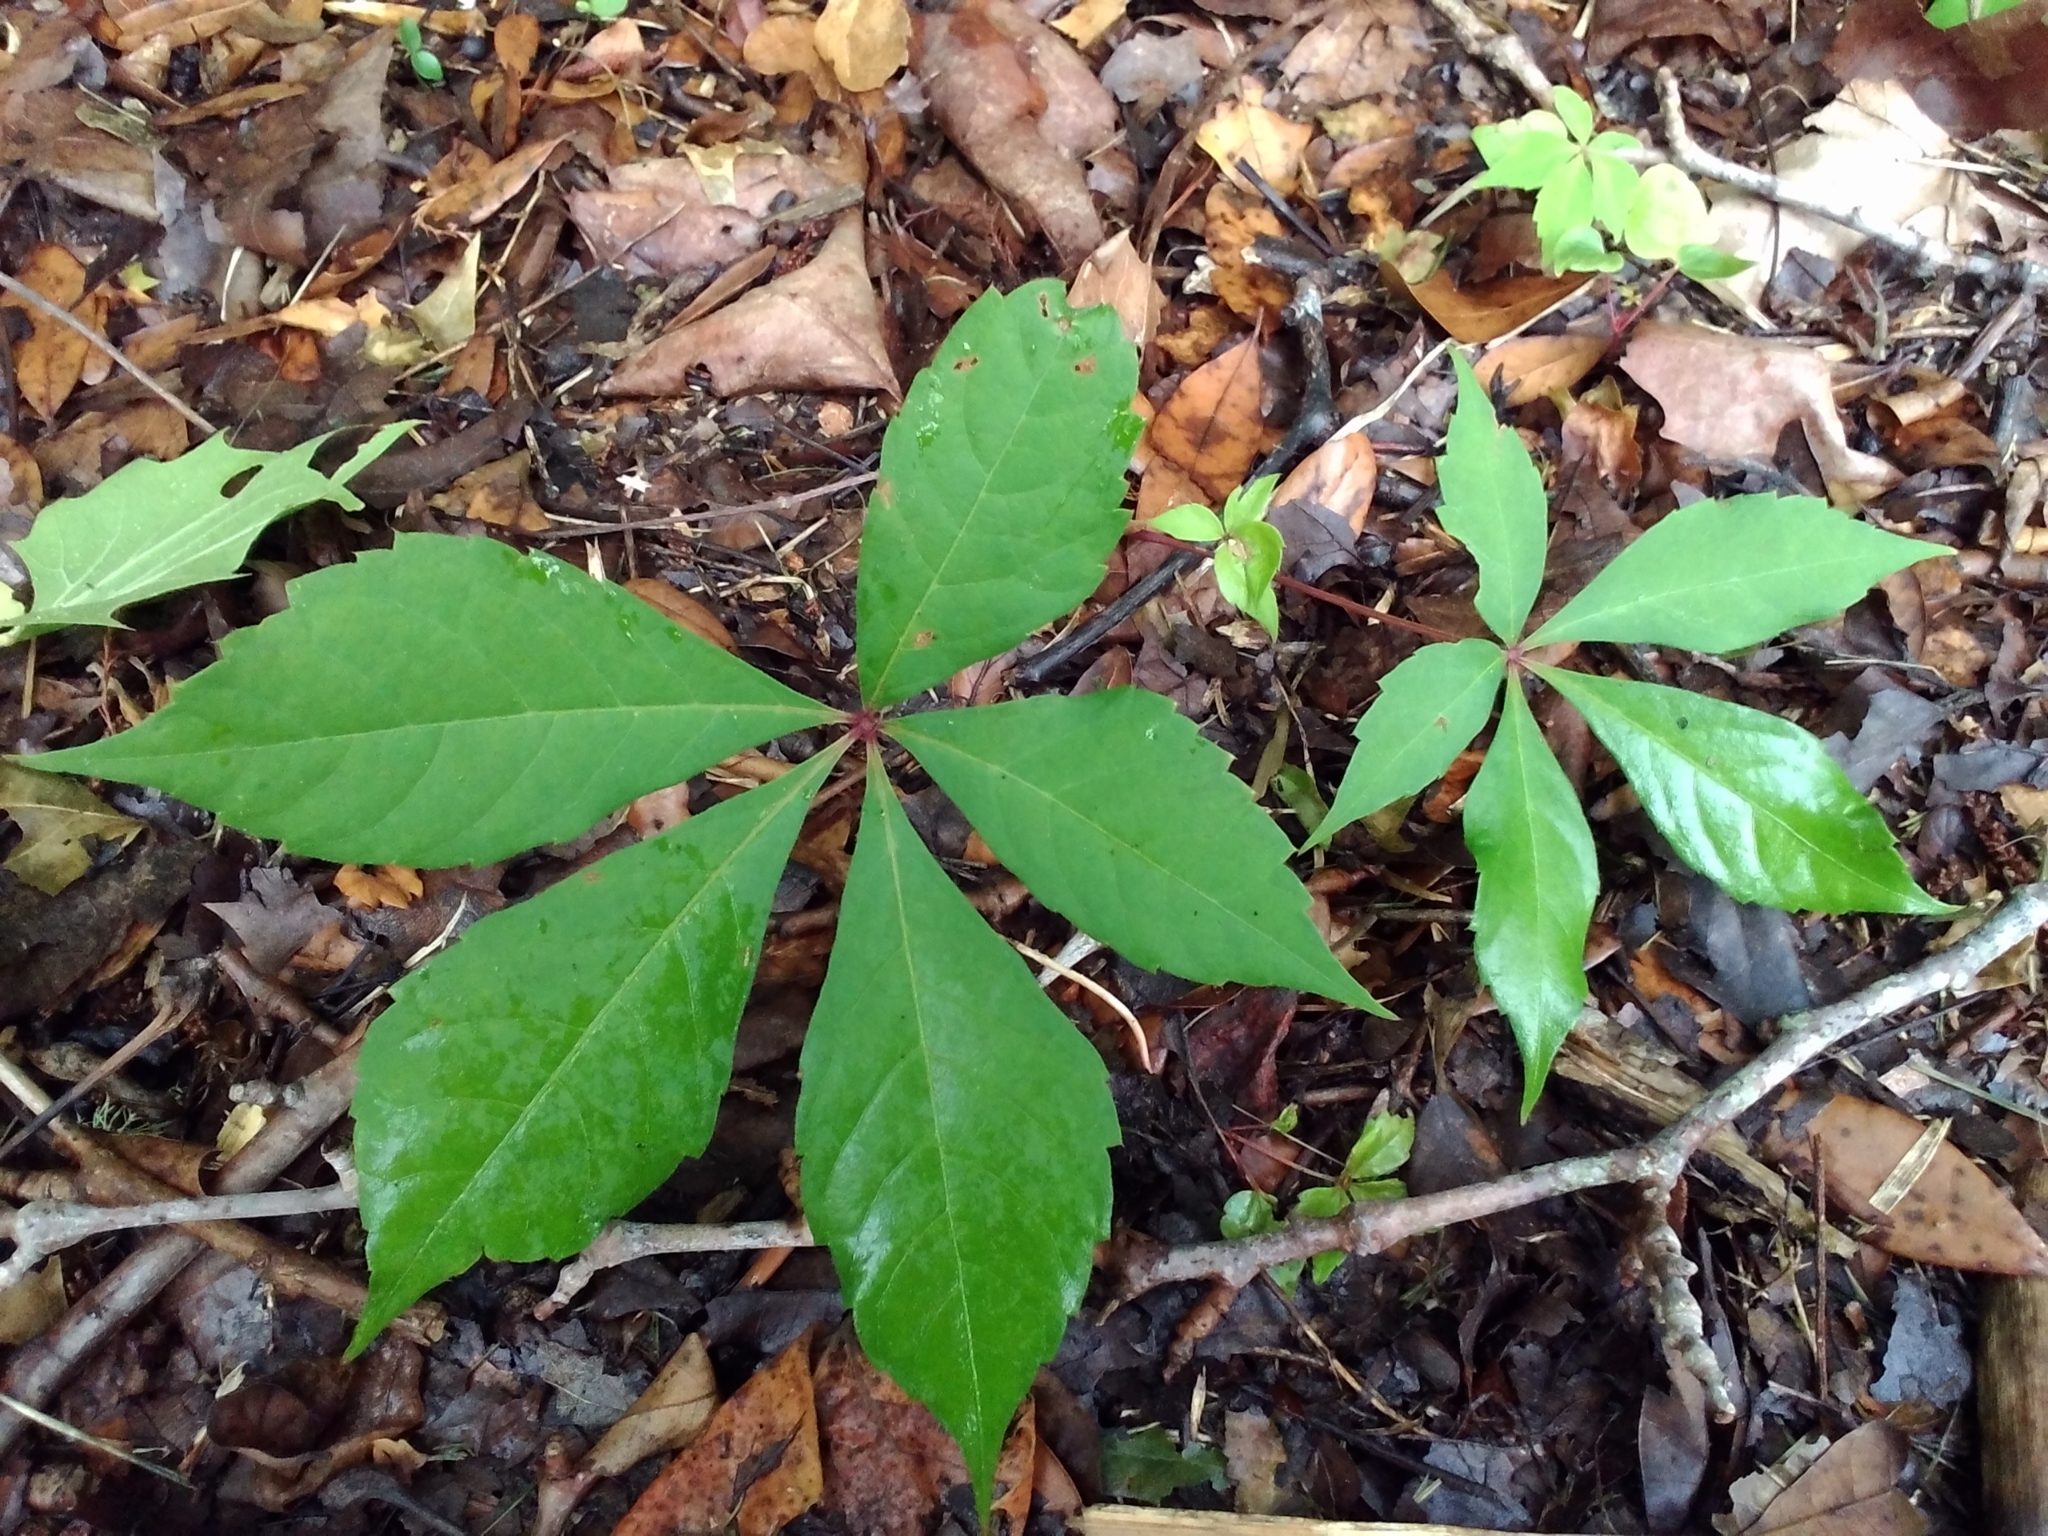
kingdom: Plantae
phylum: Tracheophyta
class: Magnoliopsida
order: Vitales
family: Vitaceae
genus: Parthenocissus
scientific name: Parthenocissus quinquefolia
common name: Virginia-creeper
